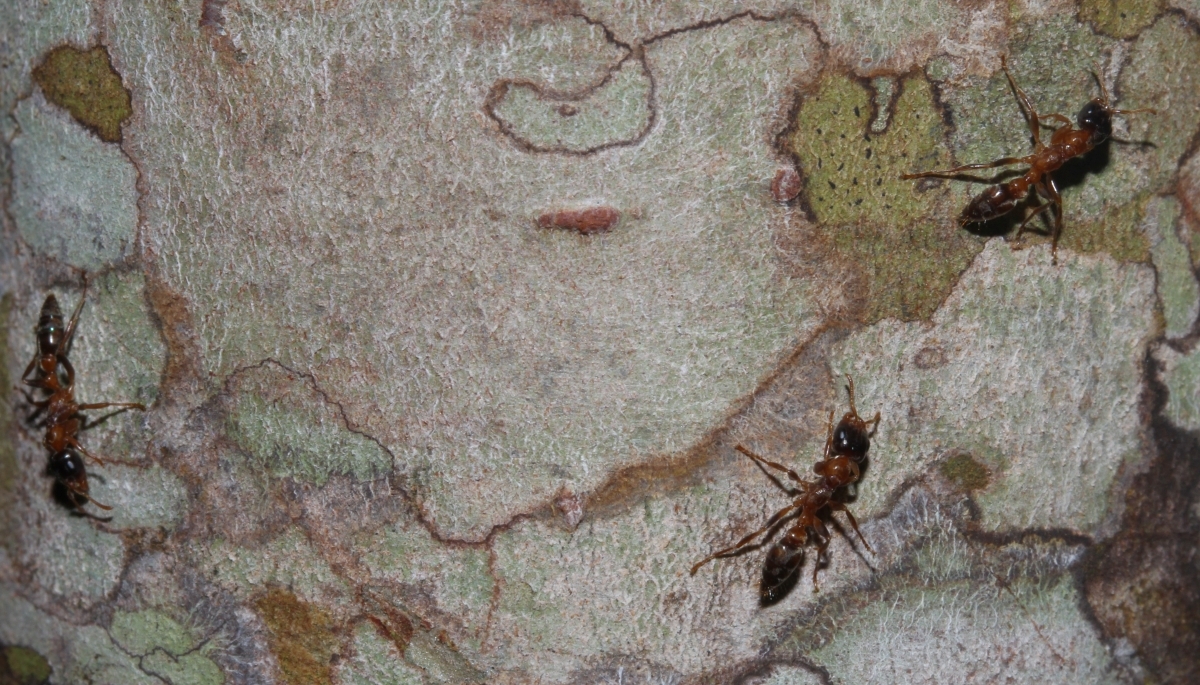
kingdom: Animalia
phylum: Arthropoda
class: Insecta
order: Hymenoptera
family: Formicidae
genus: Pseudomyrmex
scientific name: Pseudomyrmex
